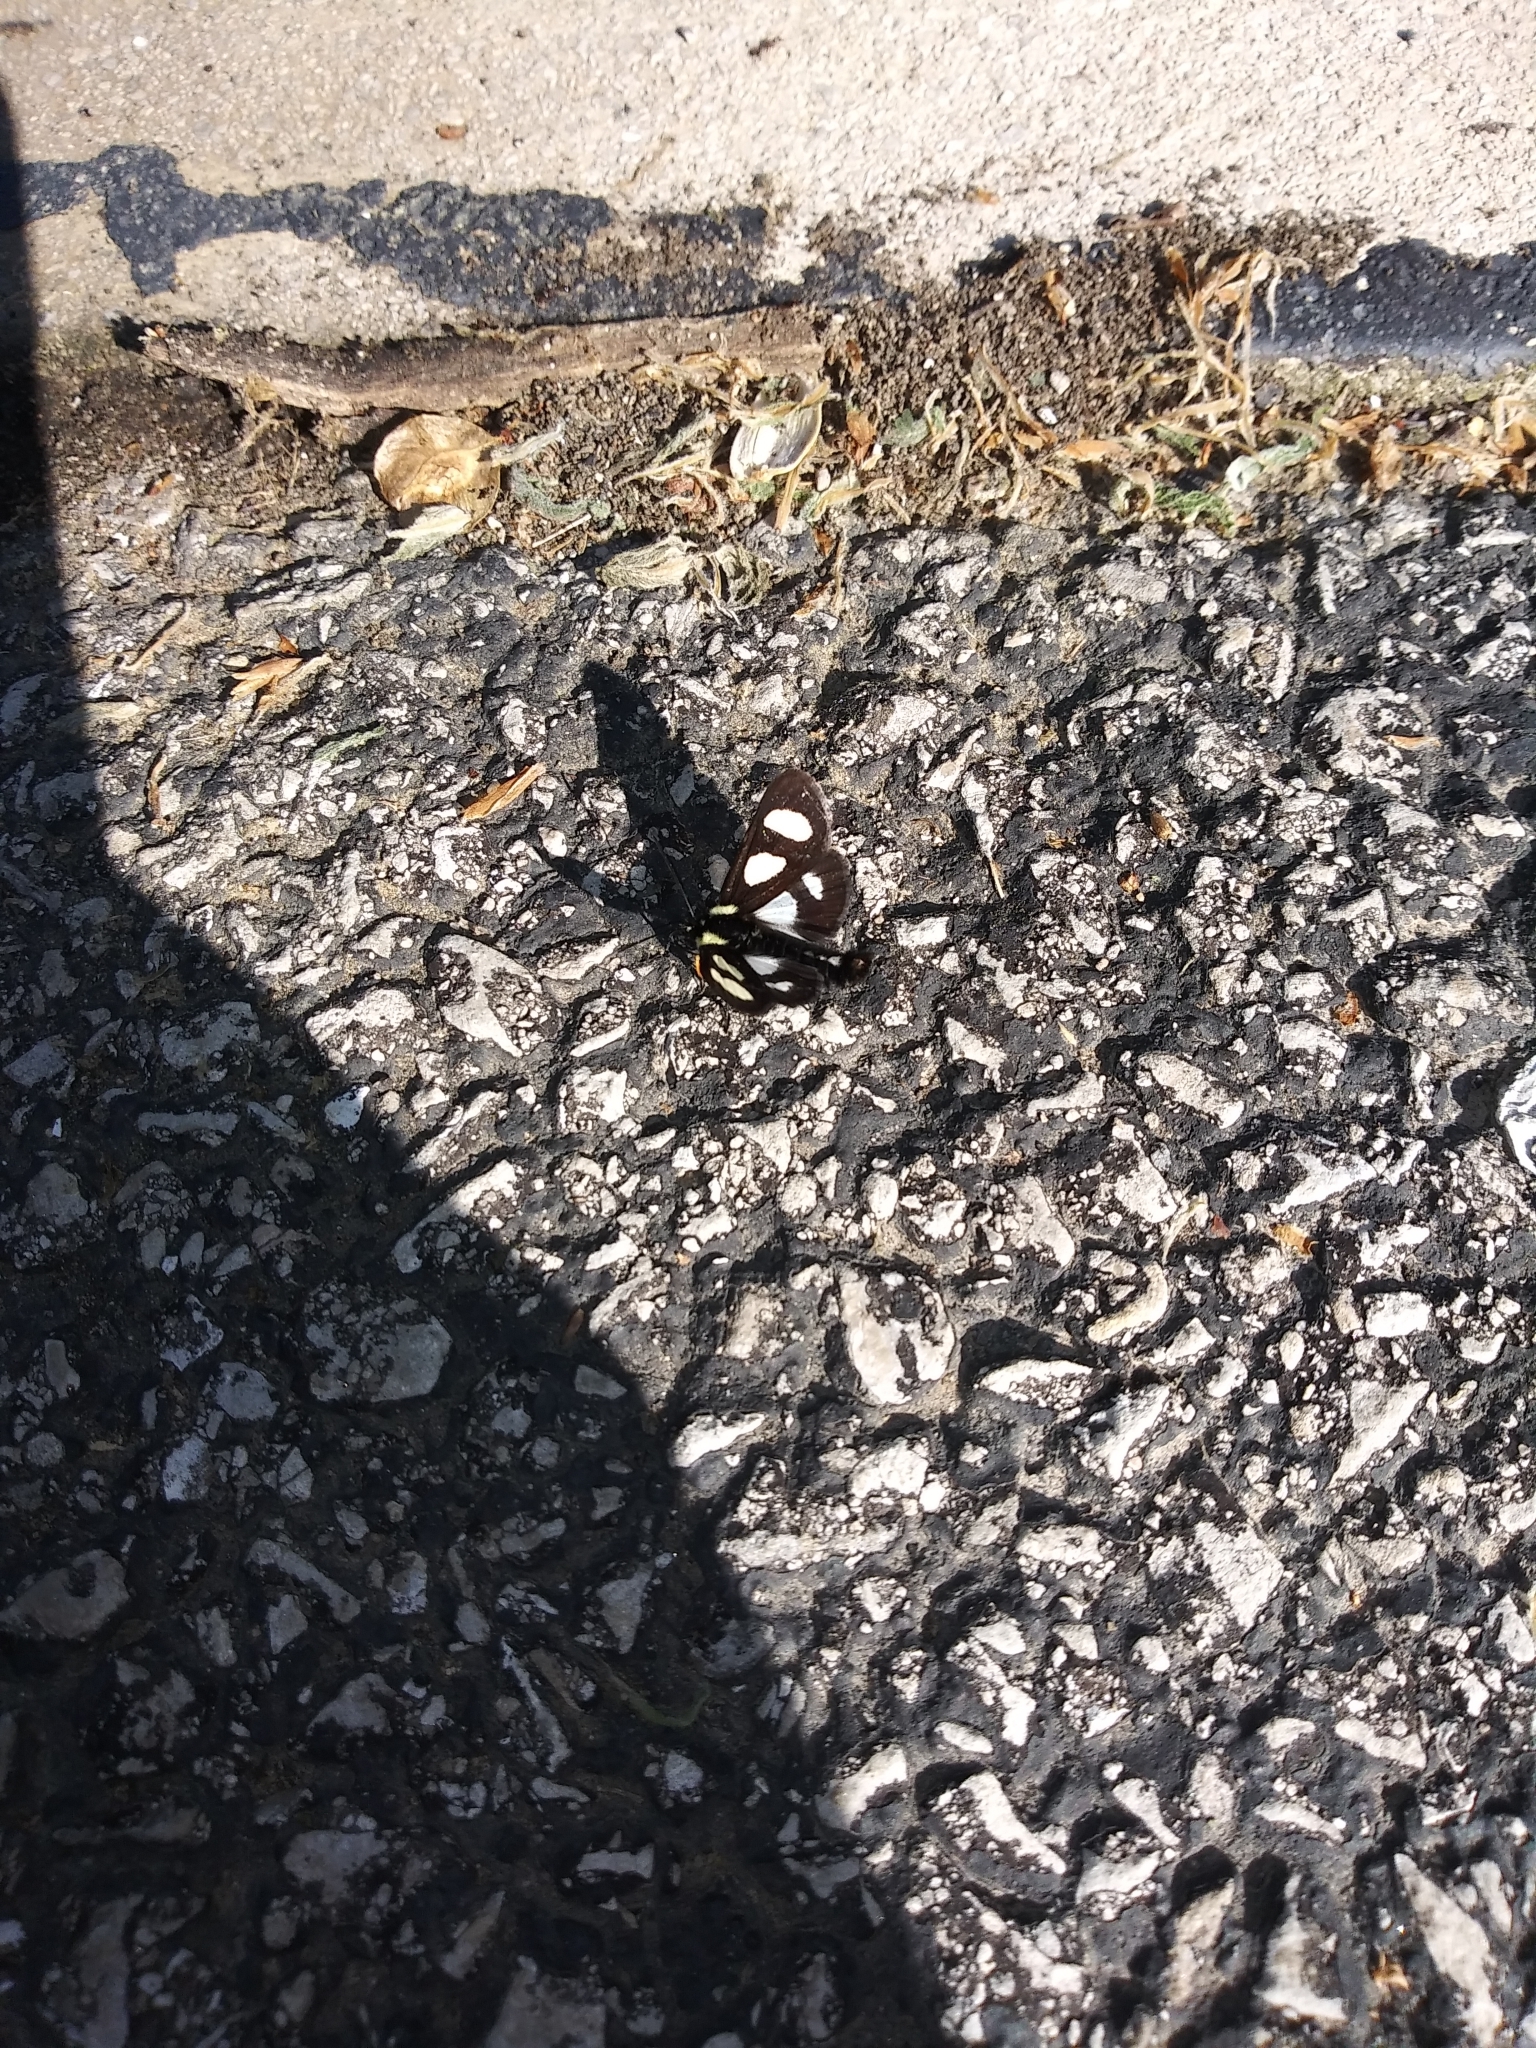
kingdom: Animalia
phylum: Arthropoda
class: Insecta
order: Lepidoptera
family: Noctuidae
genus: Alypia
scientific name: Alypia octomaculata
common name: Eight-spotted forester
